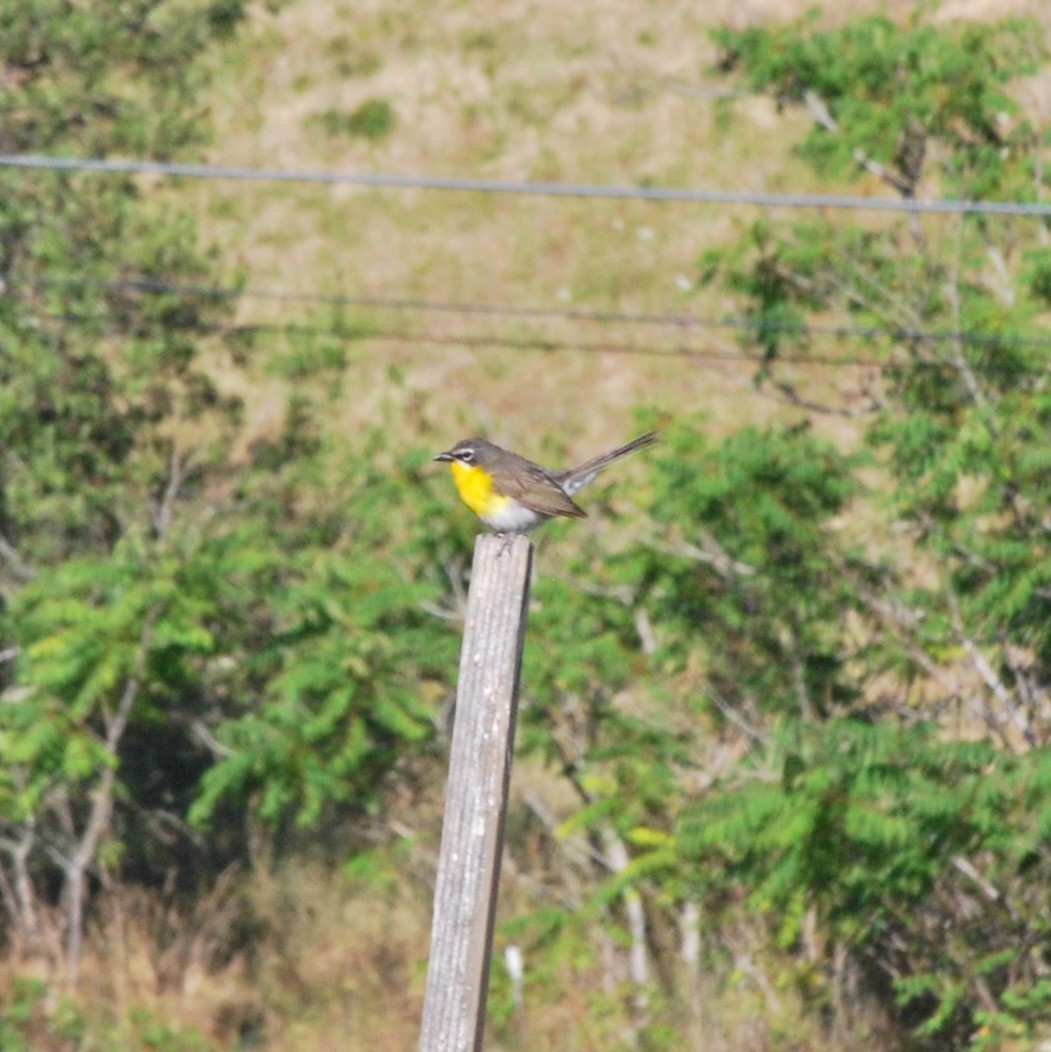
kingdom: Animalia
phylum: Chordata
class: Aves
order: Passeriformes
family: Parulidae
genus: Icteria
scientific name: Icteria virens
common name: Yellow-breasted chat
